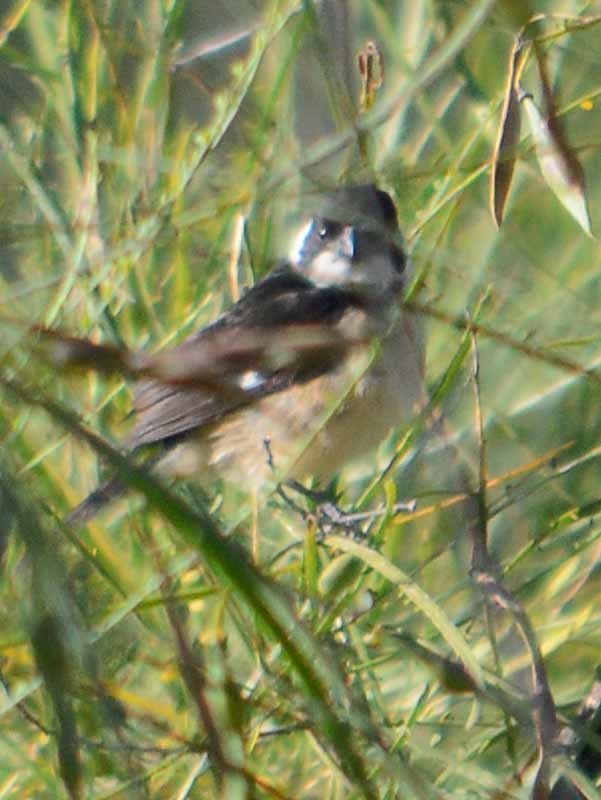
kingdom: Animalia
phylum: Chordata
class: Aves
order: Passeriformes
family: Thraupidae
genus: Sporophila
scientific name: Sporophila torqueola
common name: White-collared seedeater
